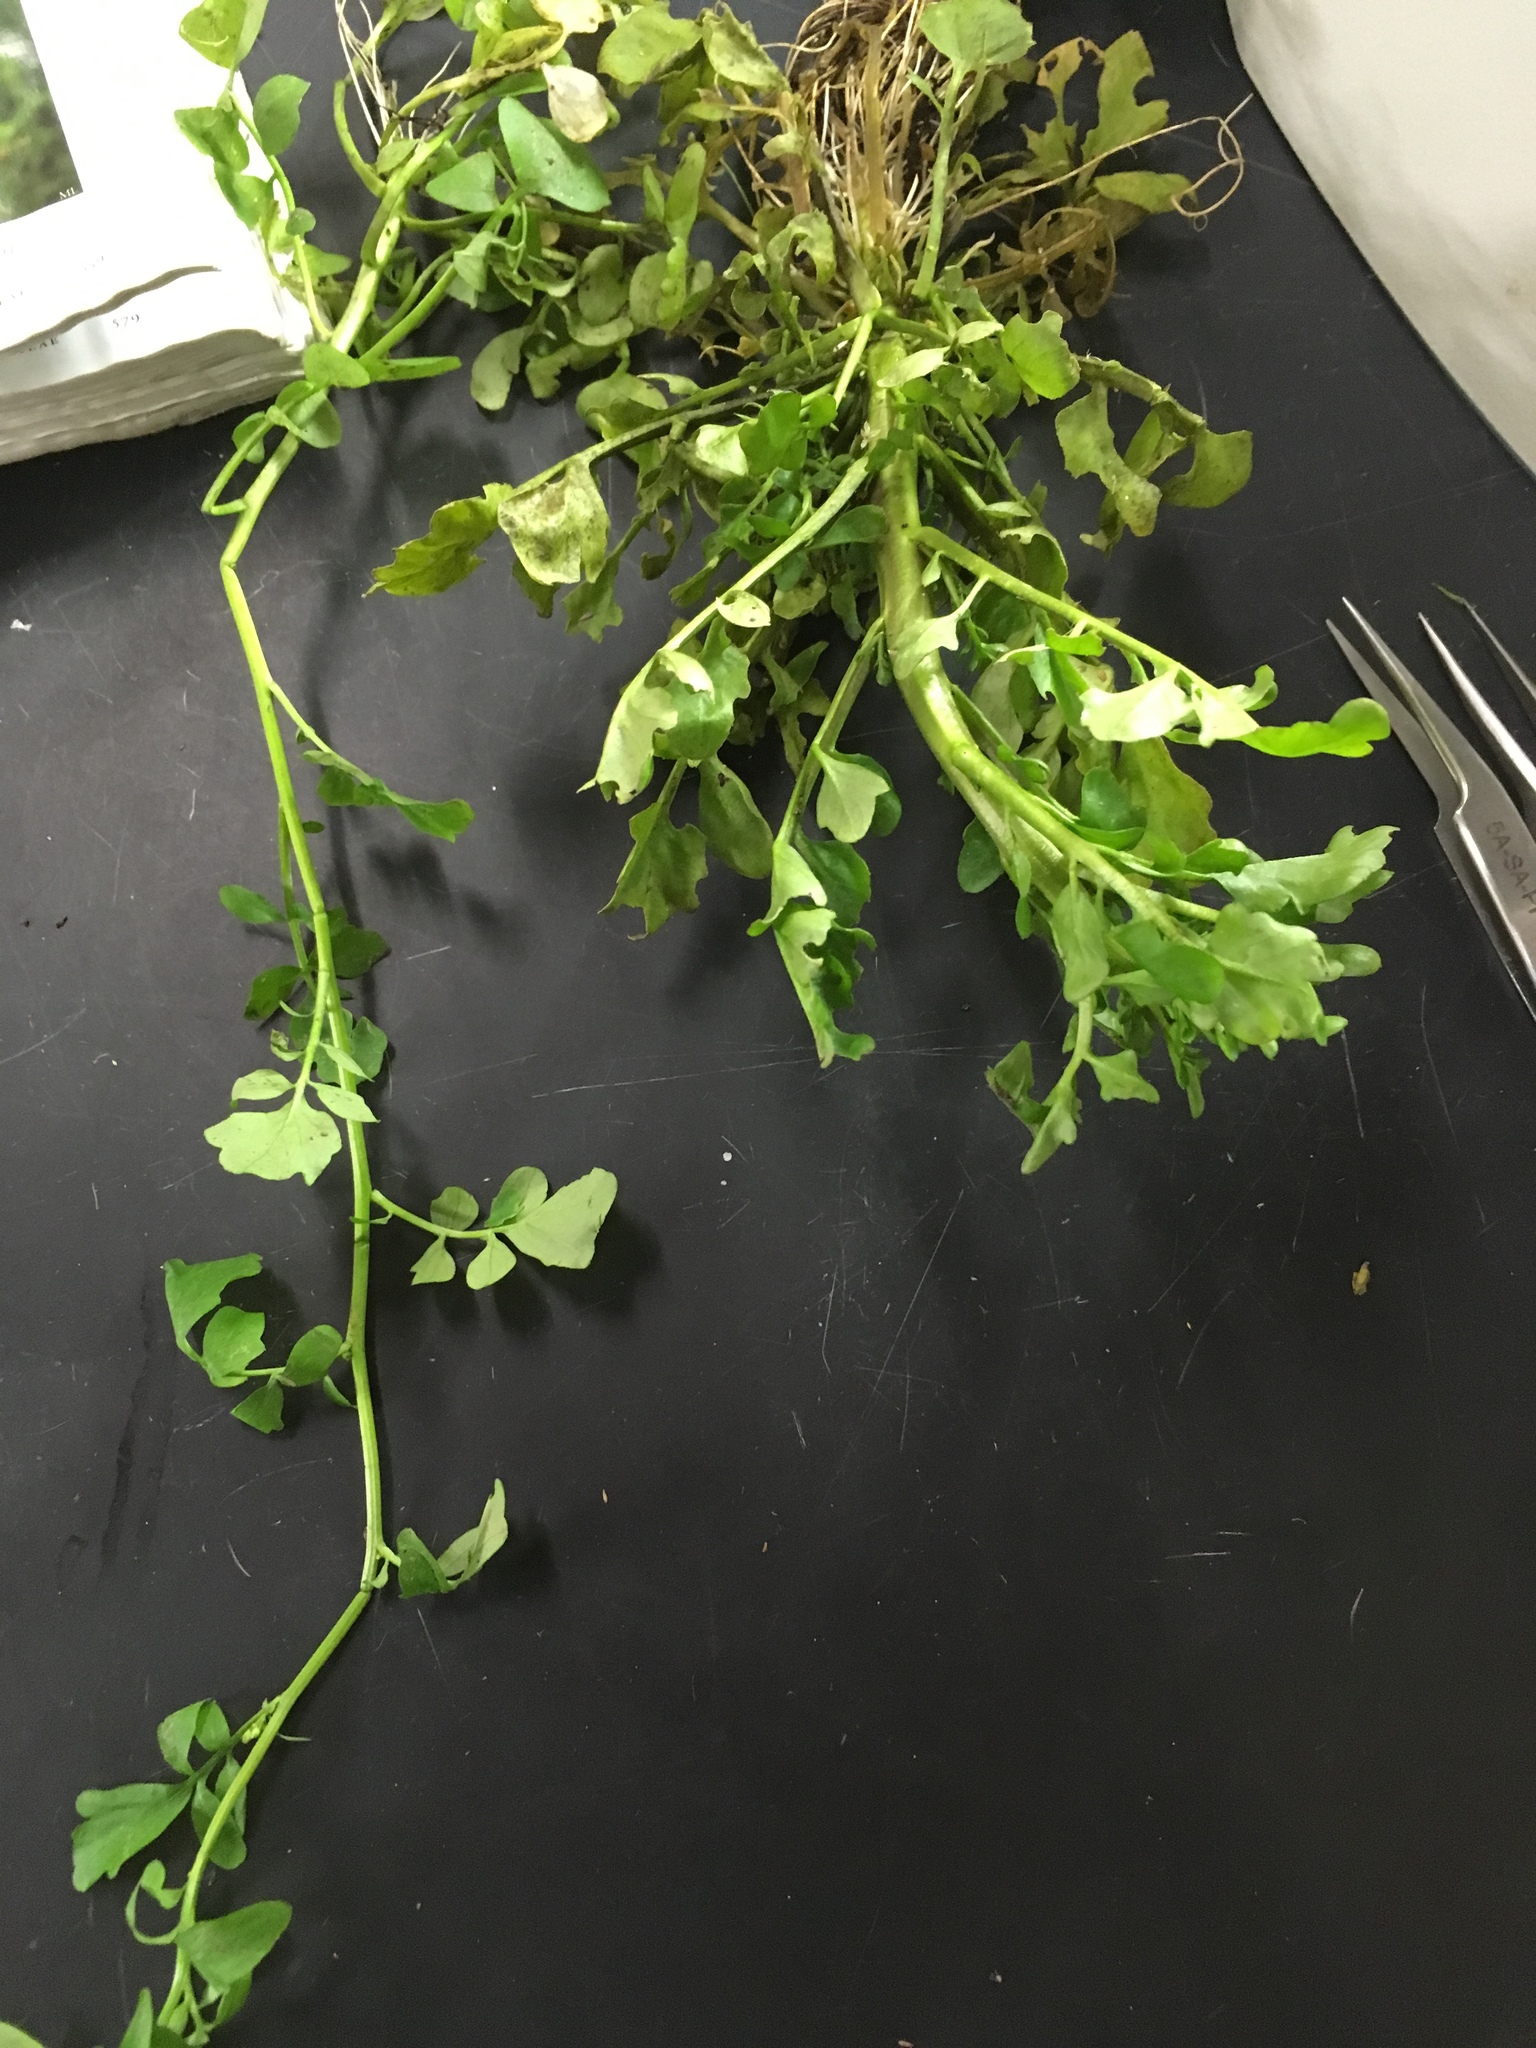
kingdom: Plantae
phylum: Tracheophyta
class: Magnoliopsida
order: Brassicales
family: Brassicaceae
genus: Nasturtium
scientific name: Nasturtium officinale
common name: Watercress
